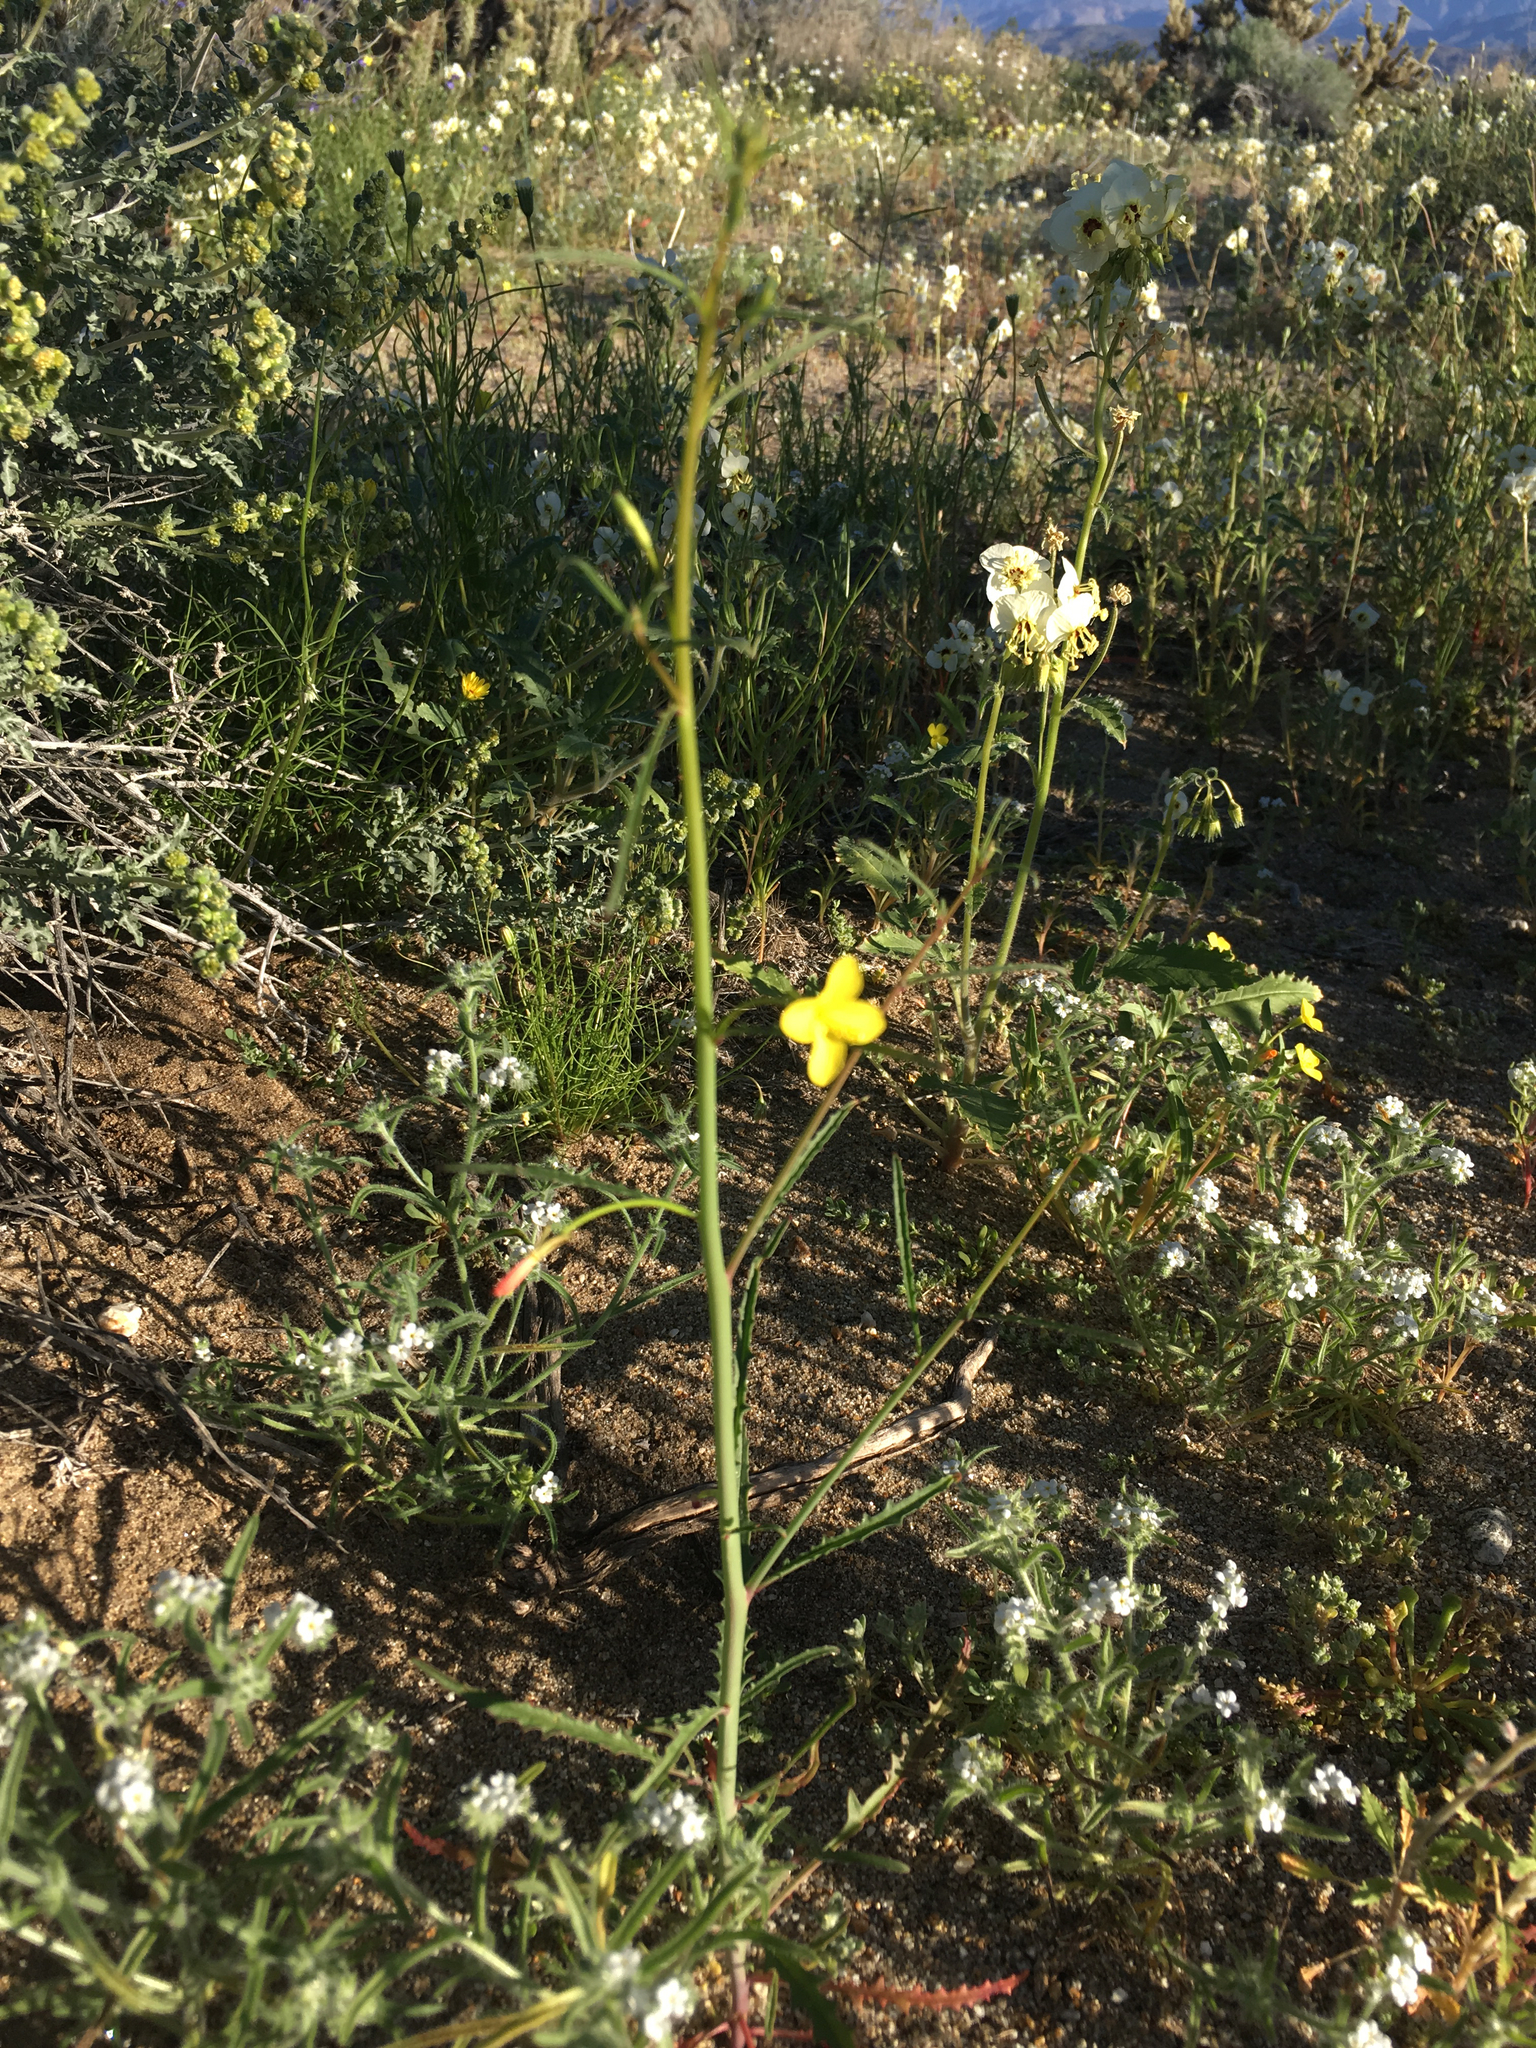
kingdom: Plantae
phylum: Tracheophyta
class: Magnoliopsida
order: Myrtales
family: Onagraceae
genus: Eulobus
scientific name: Eulobus californicus
